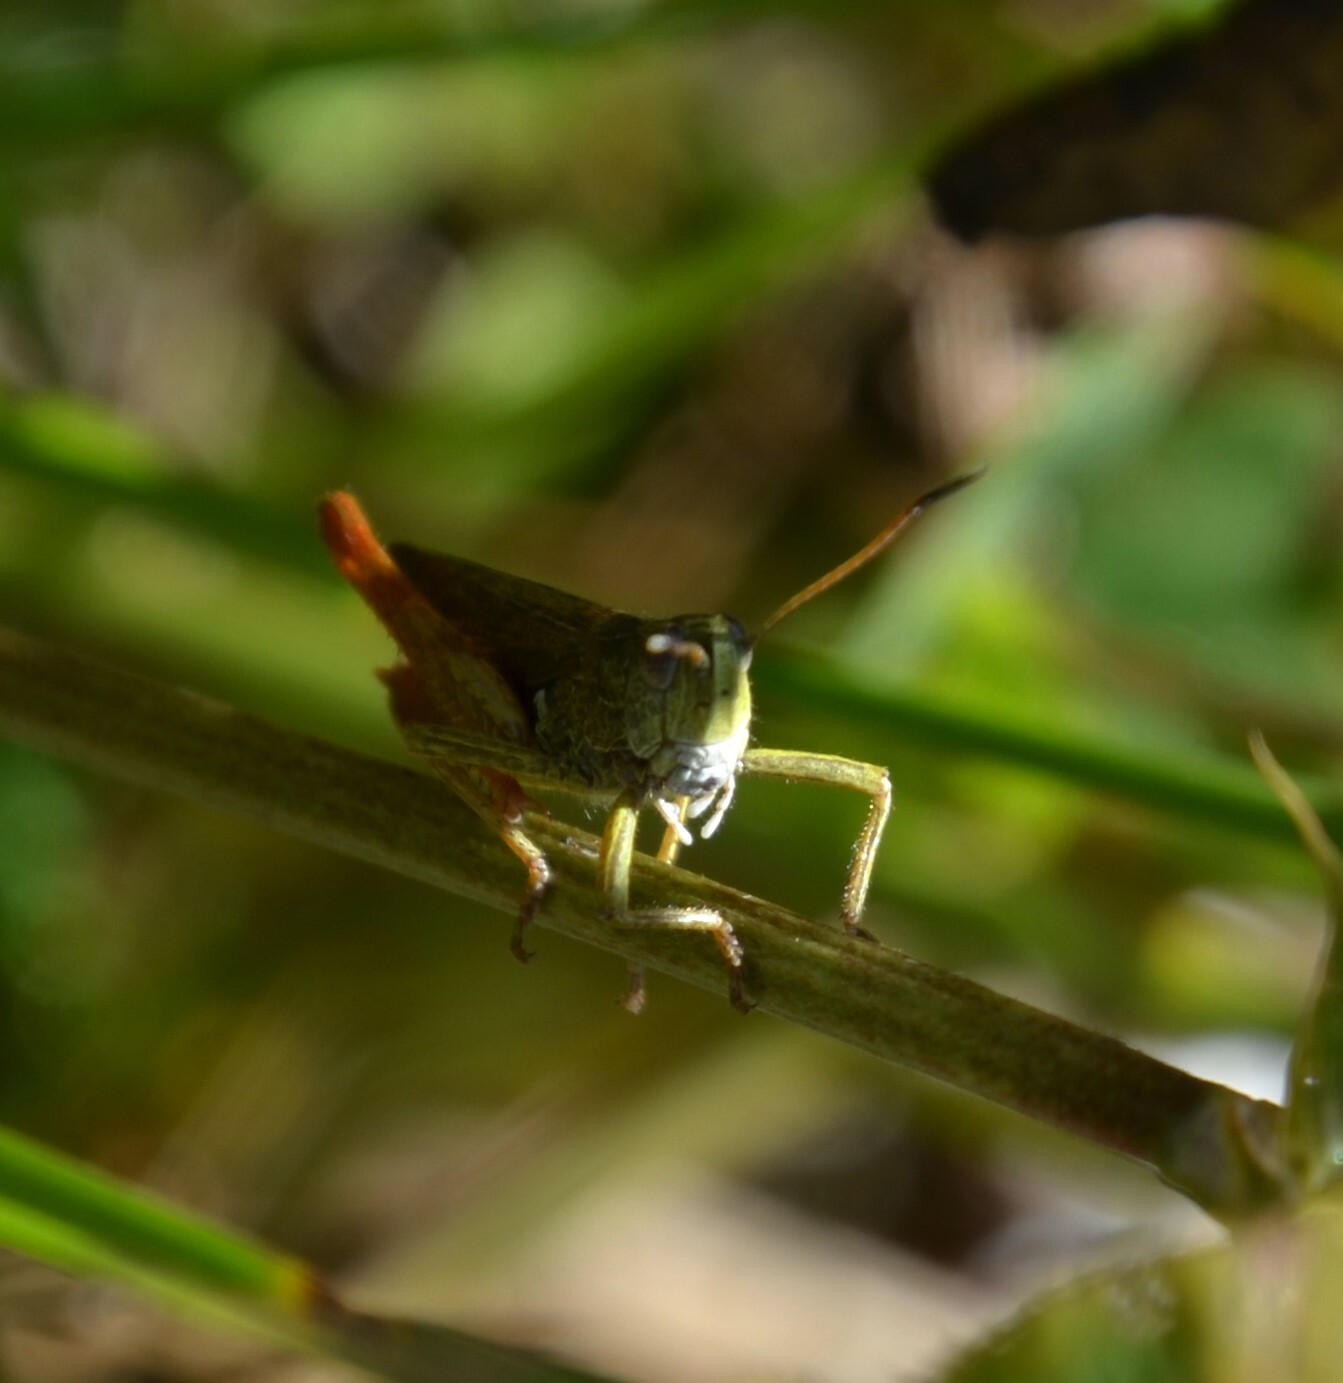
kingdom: Animalia
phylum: Arthropoda
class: Insecta
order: Orthoptera
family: Acrididae
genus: Gomphocerippus
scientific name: Gomphocerippus rufus
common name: Rufous grasshopper
